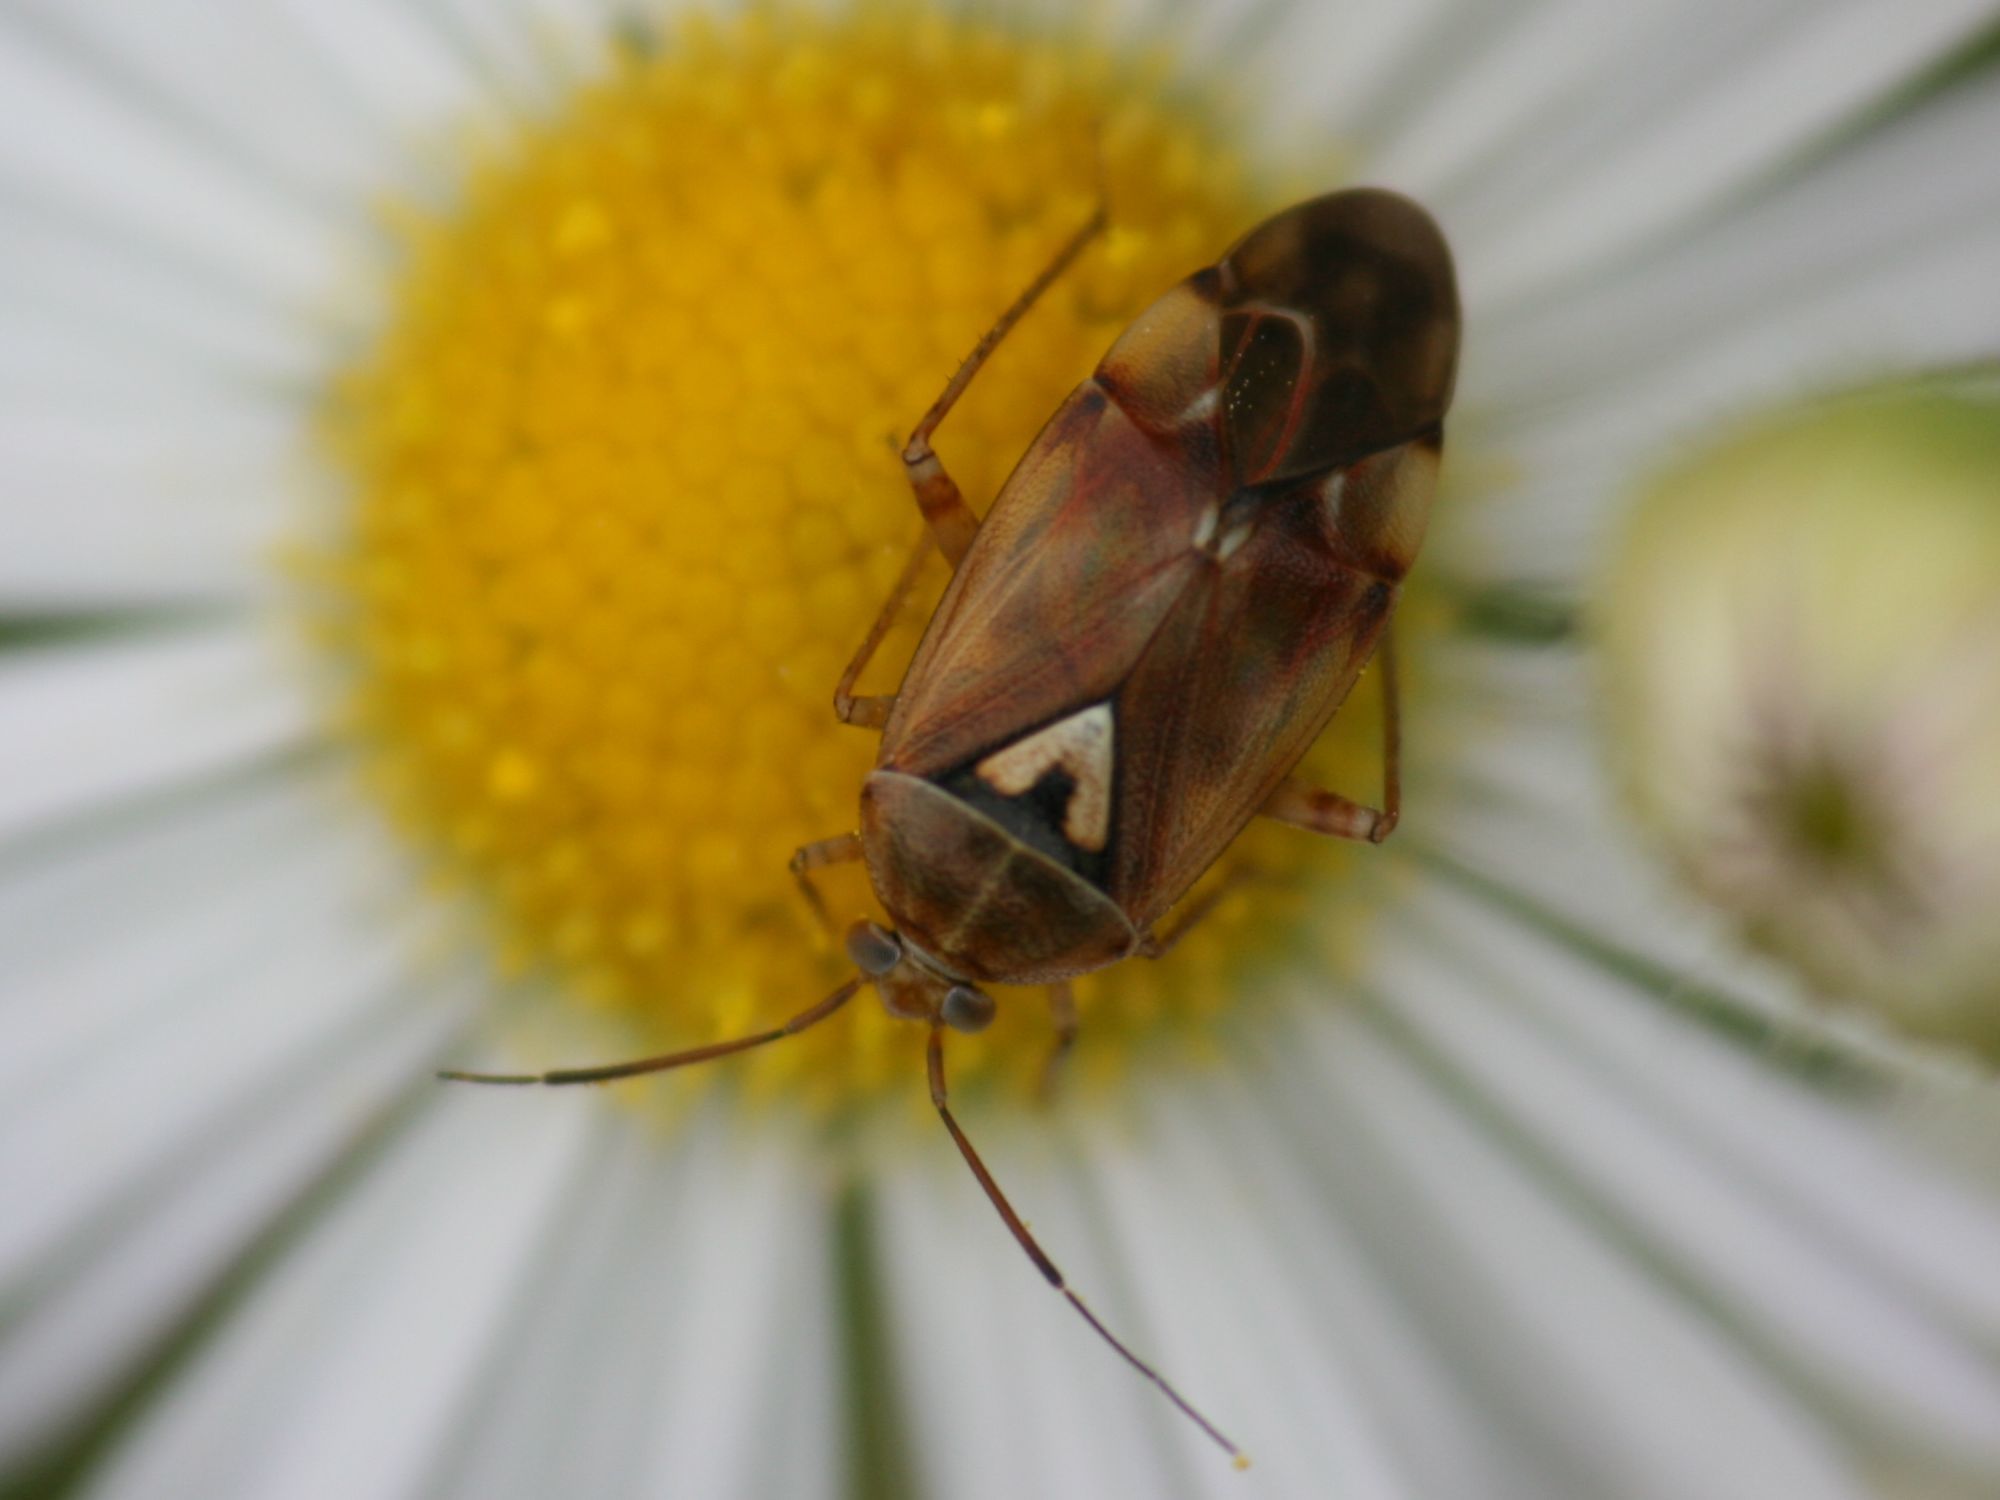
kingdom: Animalia
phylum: Arthropoda
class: Insecta
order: Hemiptera
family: Miridae
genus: Lygus
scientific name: Lygus pratensis
